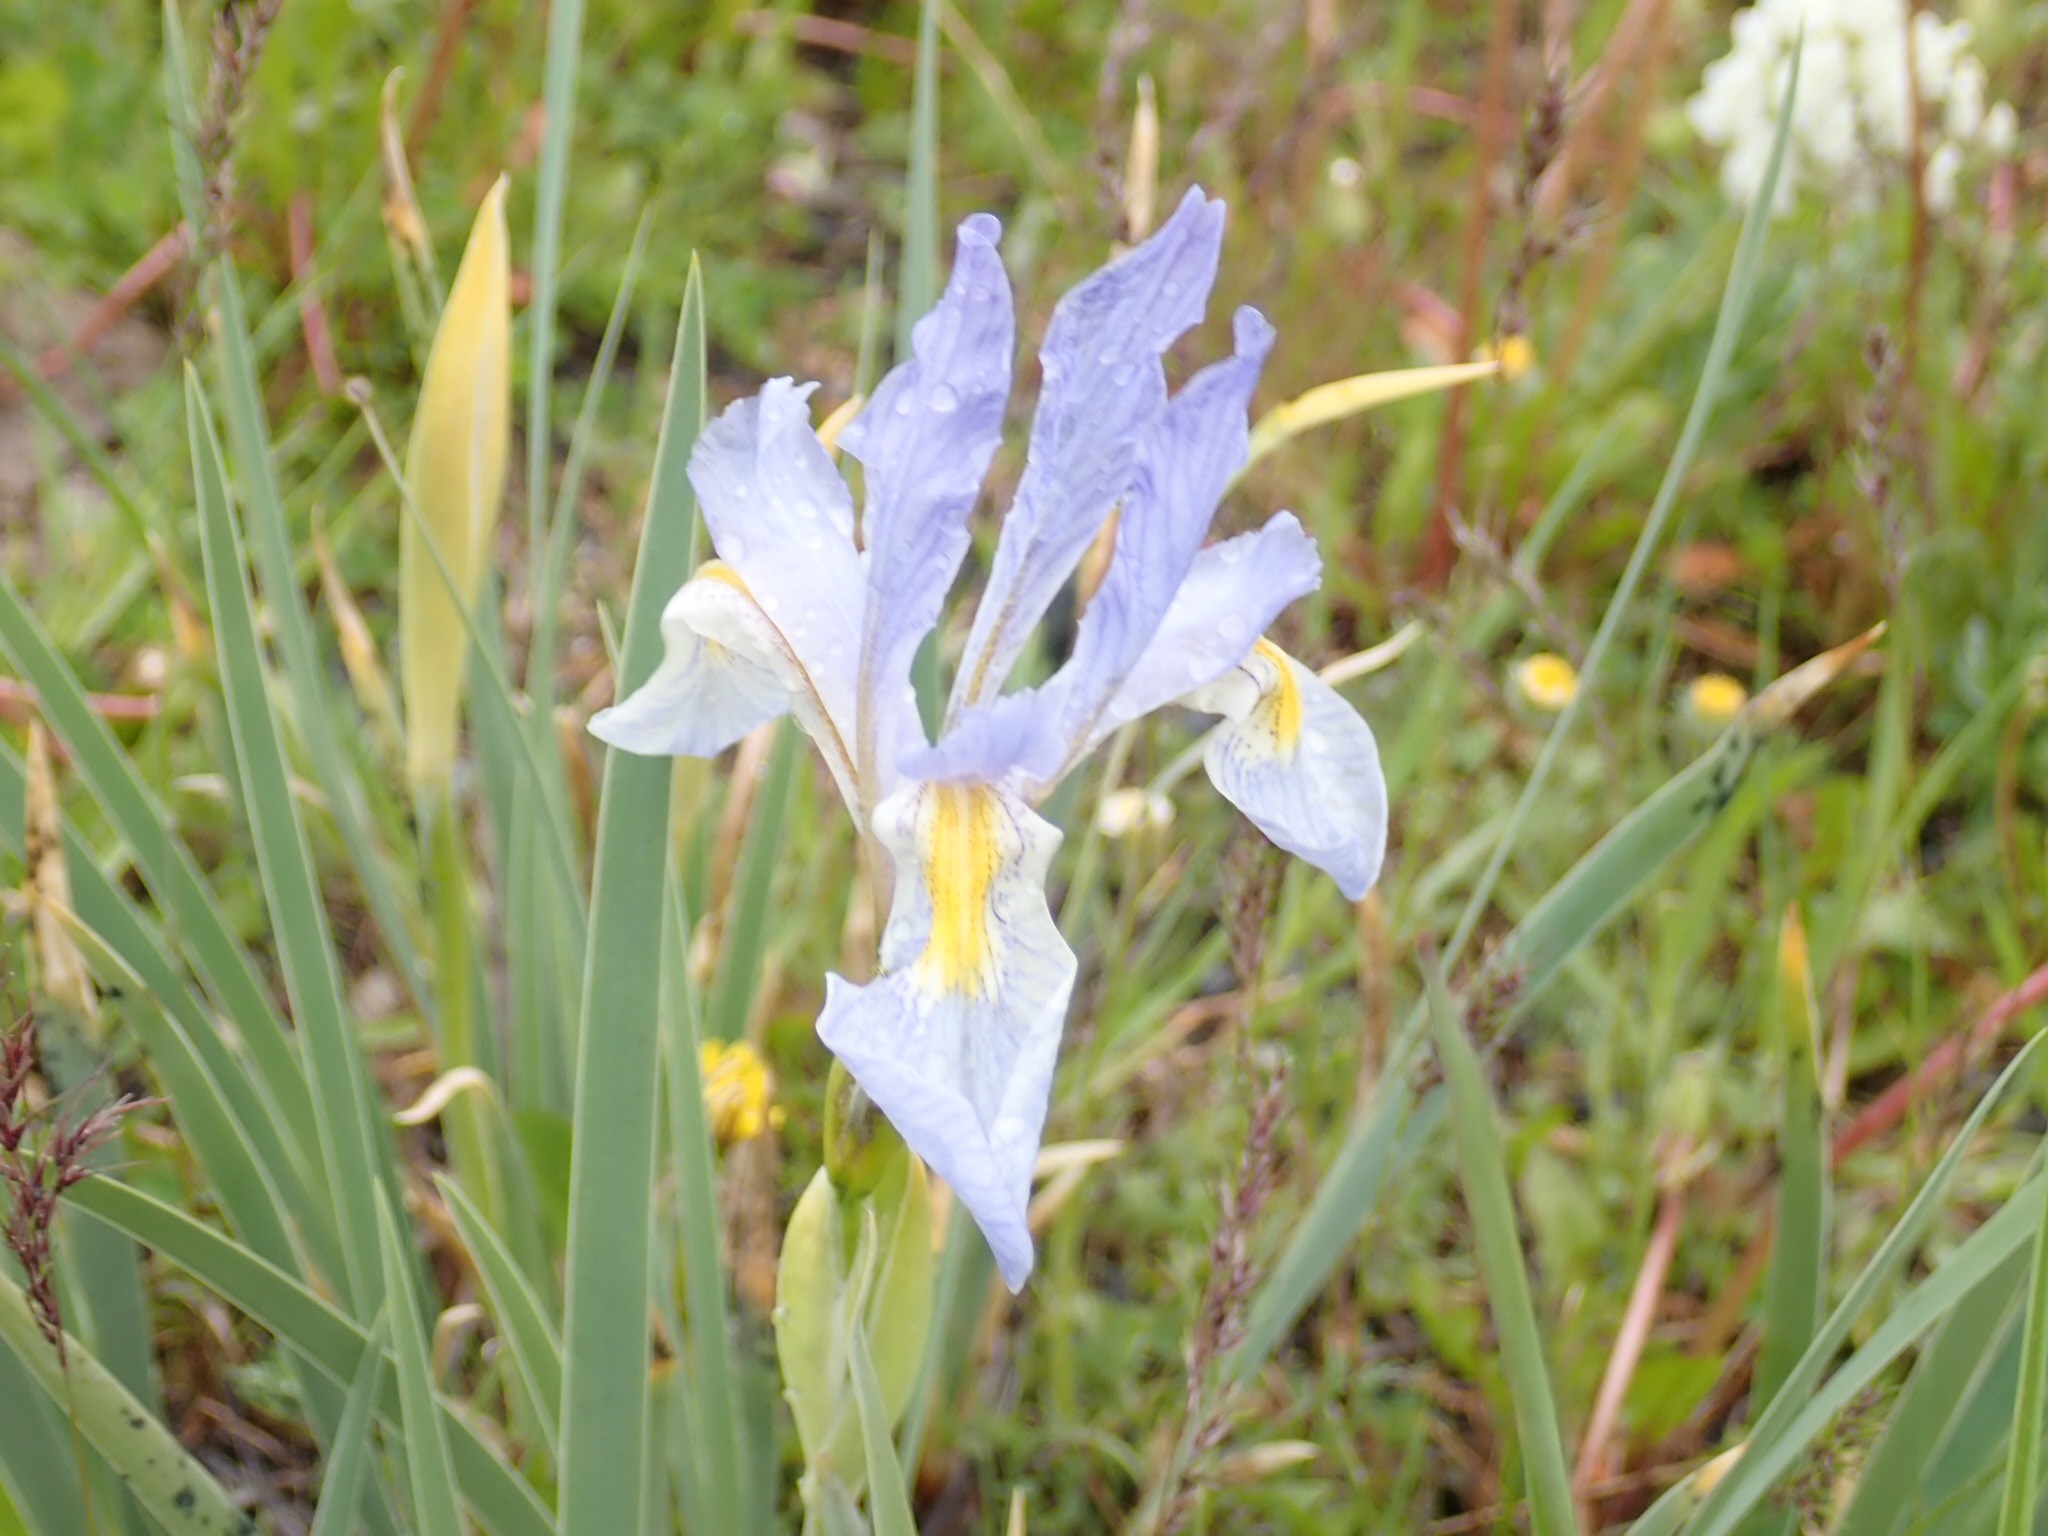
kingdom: Plantae
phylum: Tracheophyta
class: Liliopsida
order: Asparagales
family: Iridaceae
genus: Iris
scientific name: Iris missouriensis
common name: Rocky mountain iris
